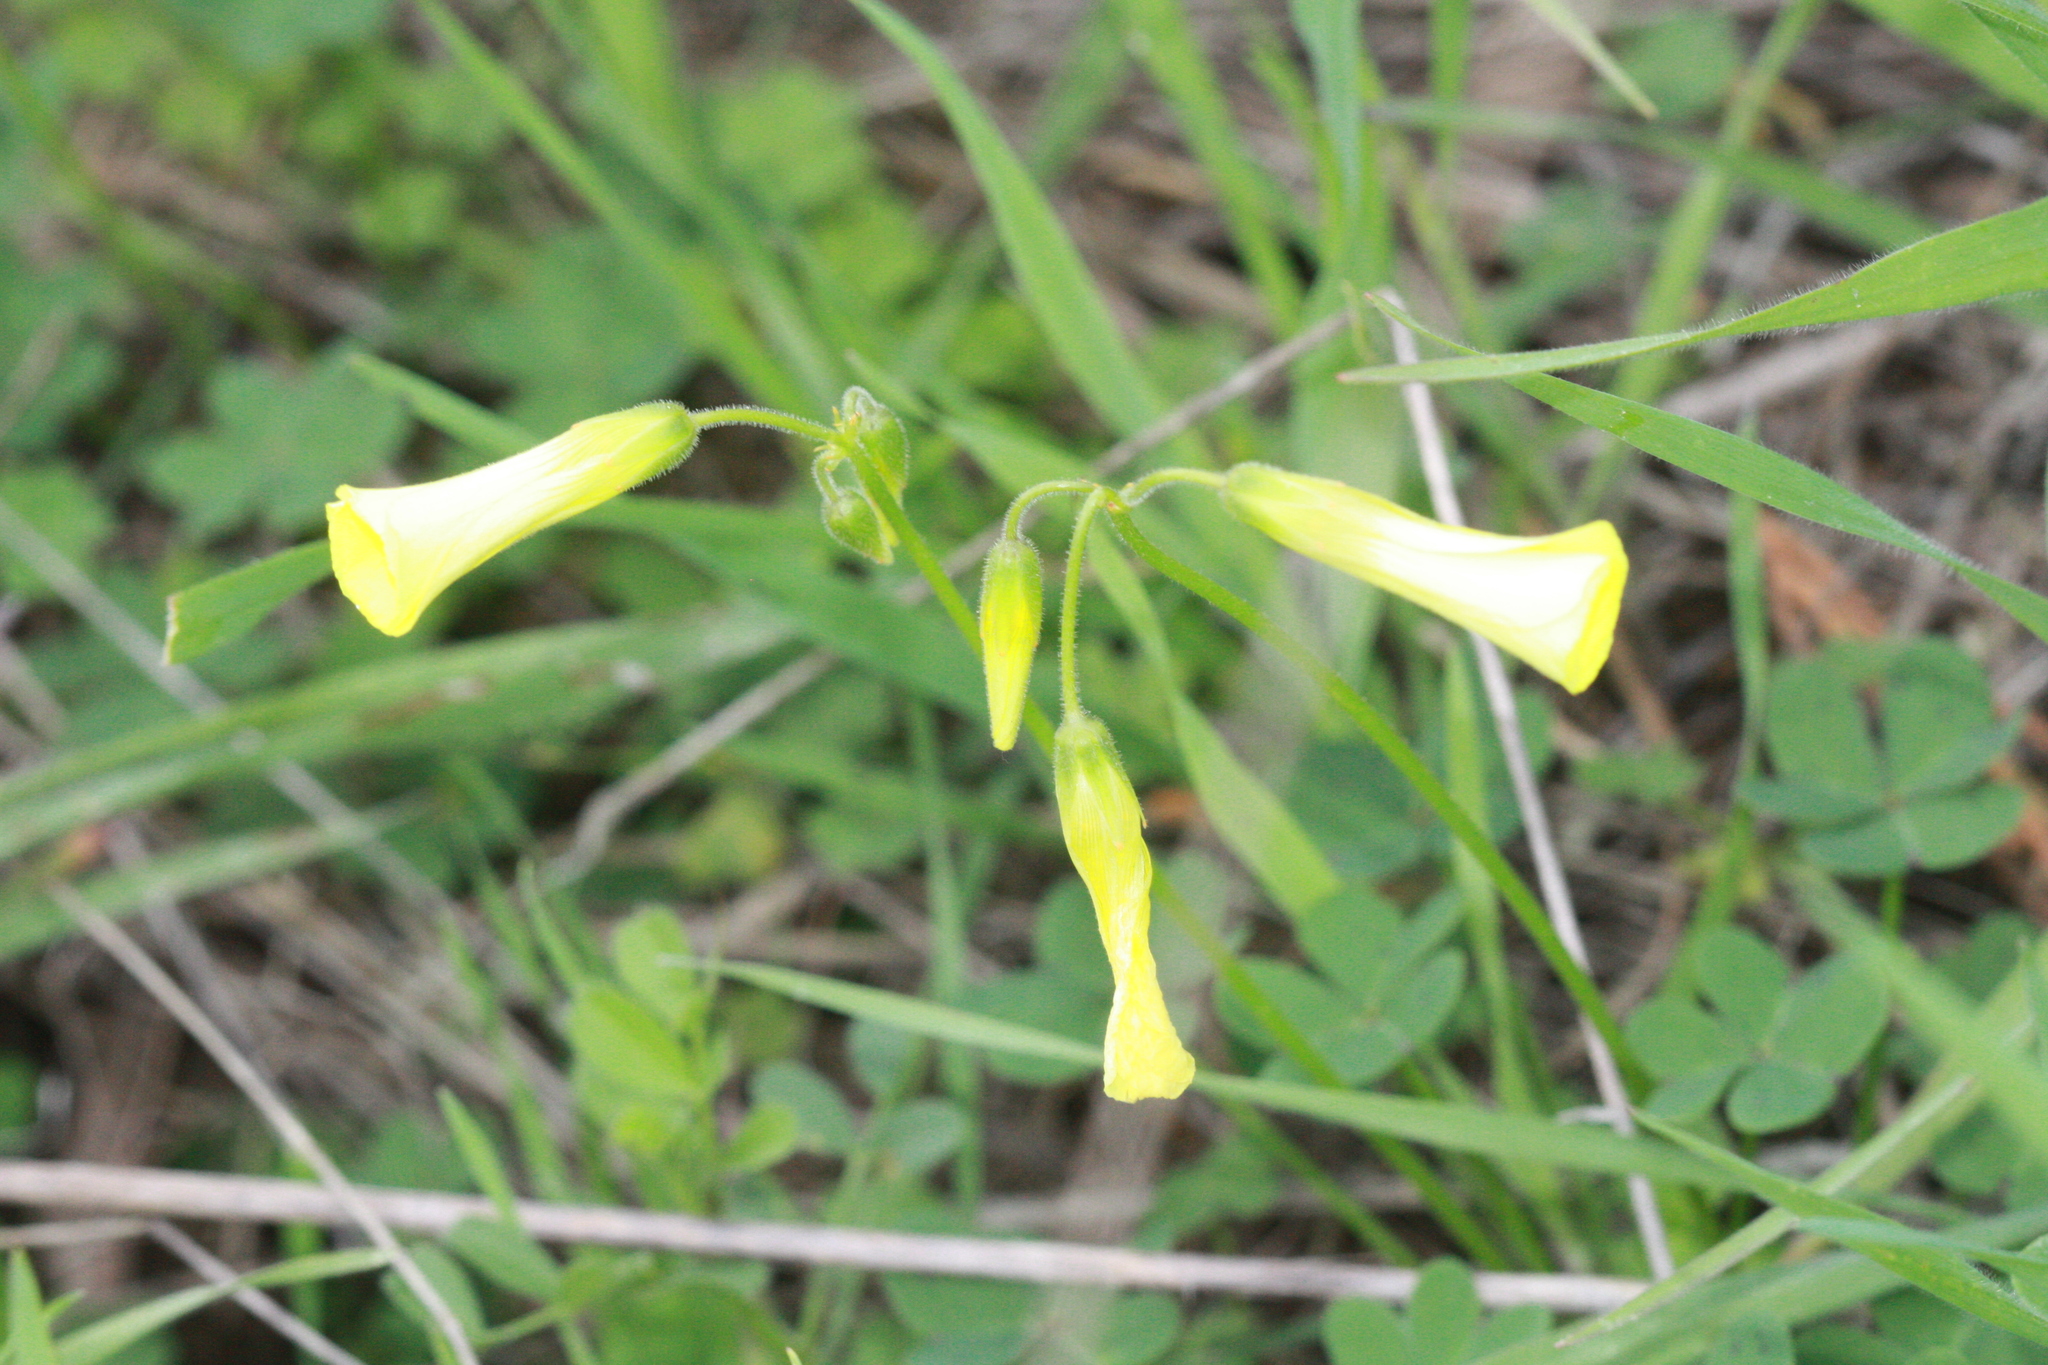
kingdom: Plantae
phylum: Tracheophyta
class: Magnoliopsida
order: Oxalidales
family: Oxalidaceae
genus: Oxalis
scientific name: Oxalis pes-caprae
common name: Bermuda-buttercup
